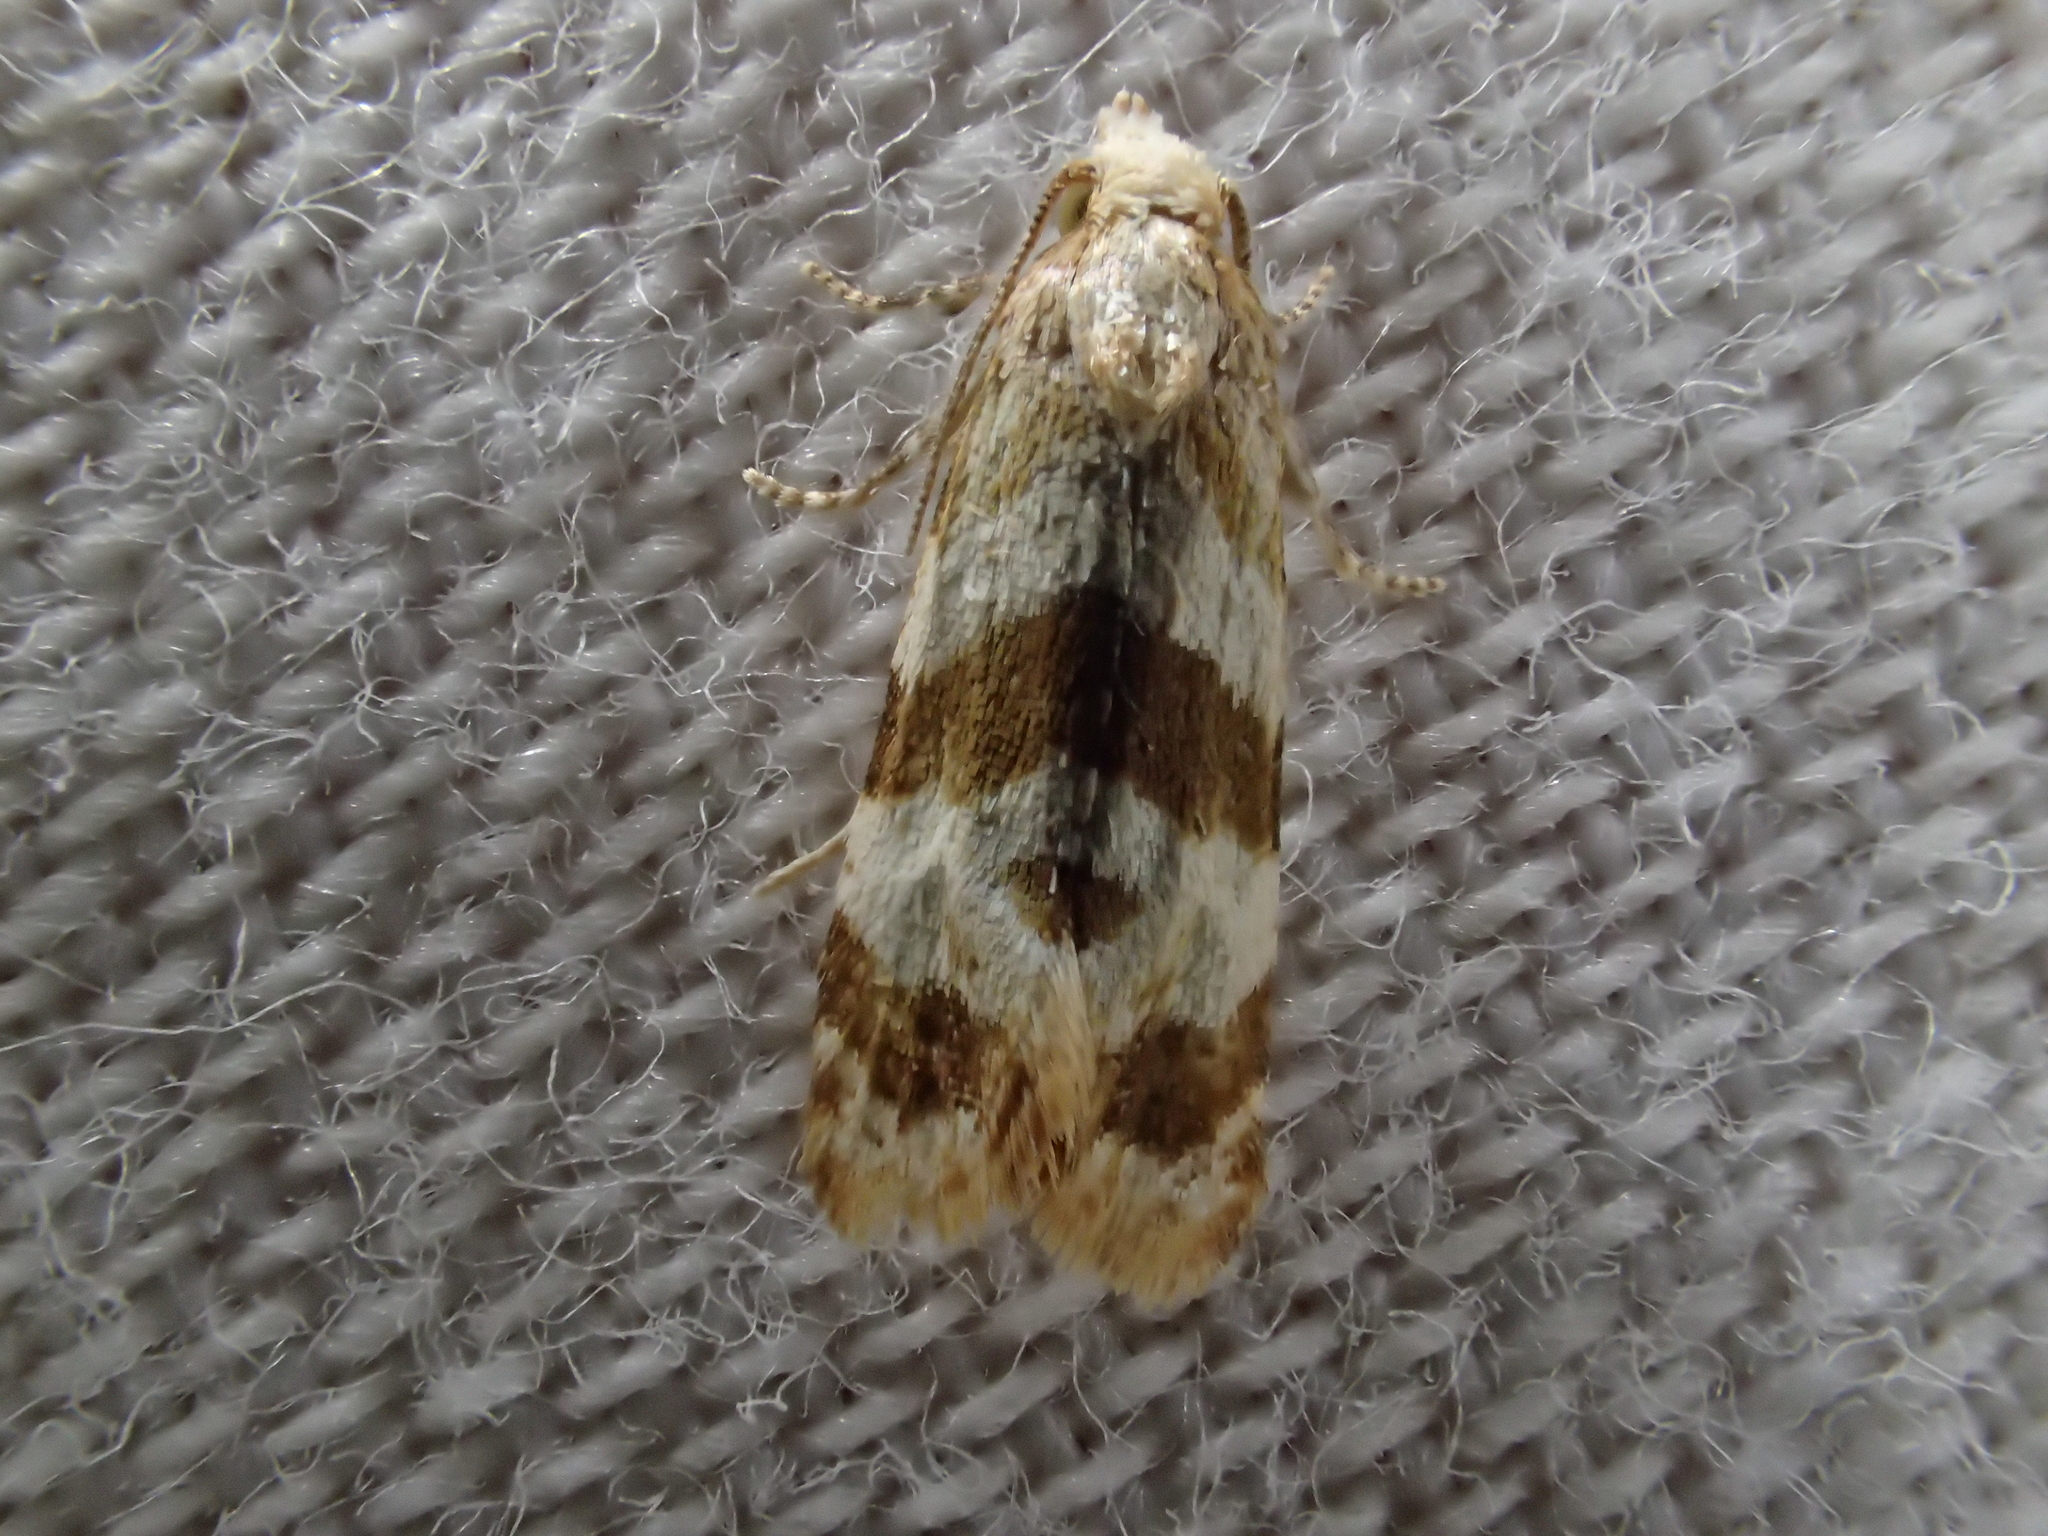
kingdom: Animalia
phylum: Arthropoda
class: Insecta
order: Lepidoptera
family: Tortricidae
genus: Phalonidia
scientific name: Phalonidia contractana
